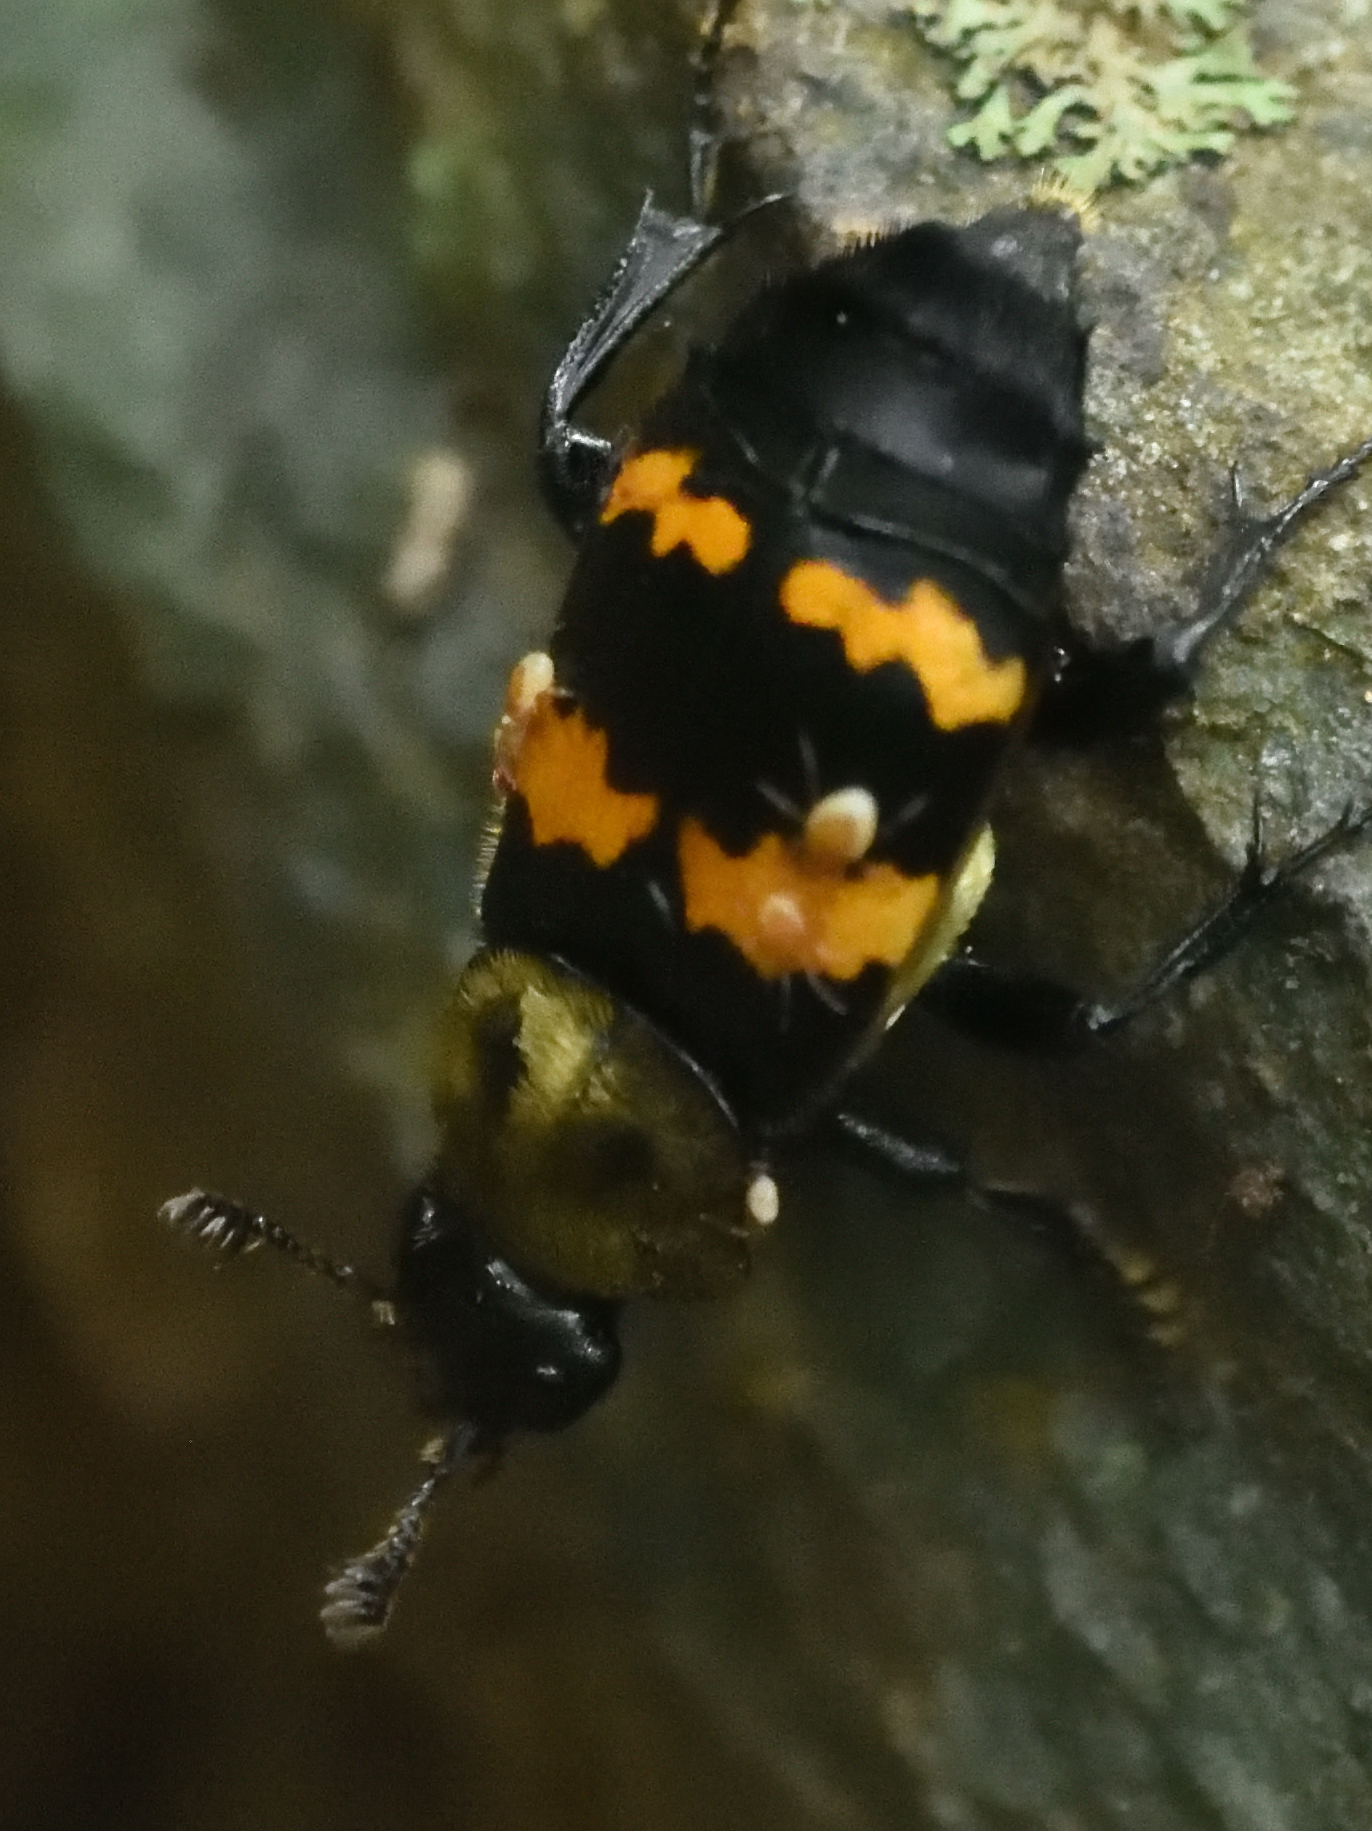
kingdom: Animalia
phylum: Arthropoda
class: Insecta
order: Coleoptera
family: Staphylinidae
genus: Nicrophorus
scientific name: Nicrophorus tomentosus
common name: Tomentose burying beetle
